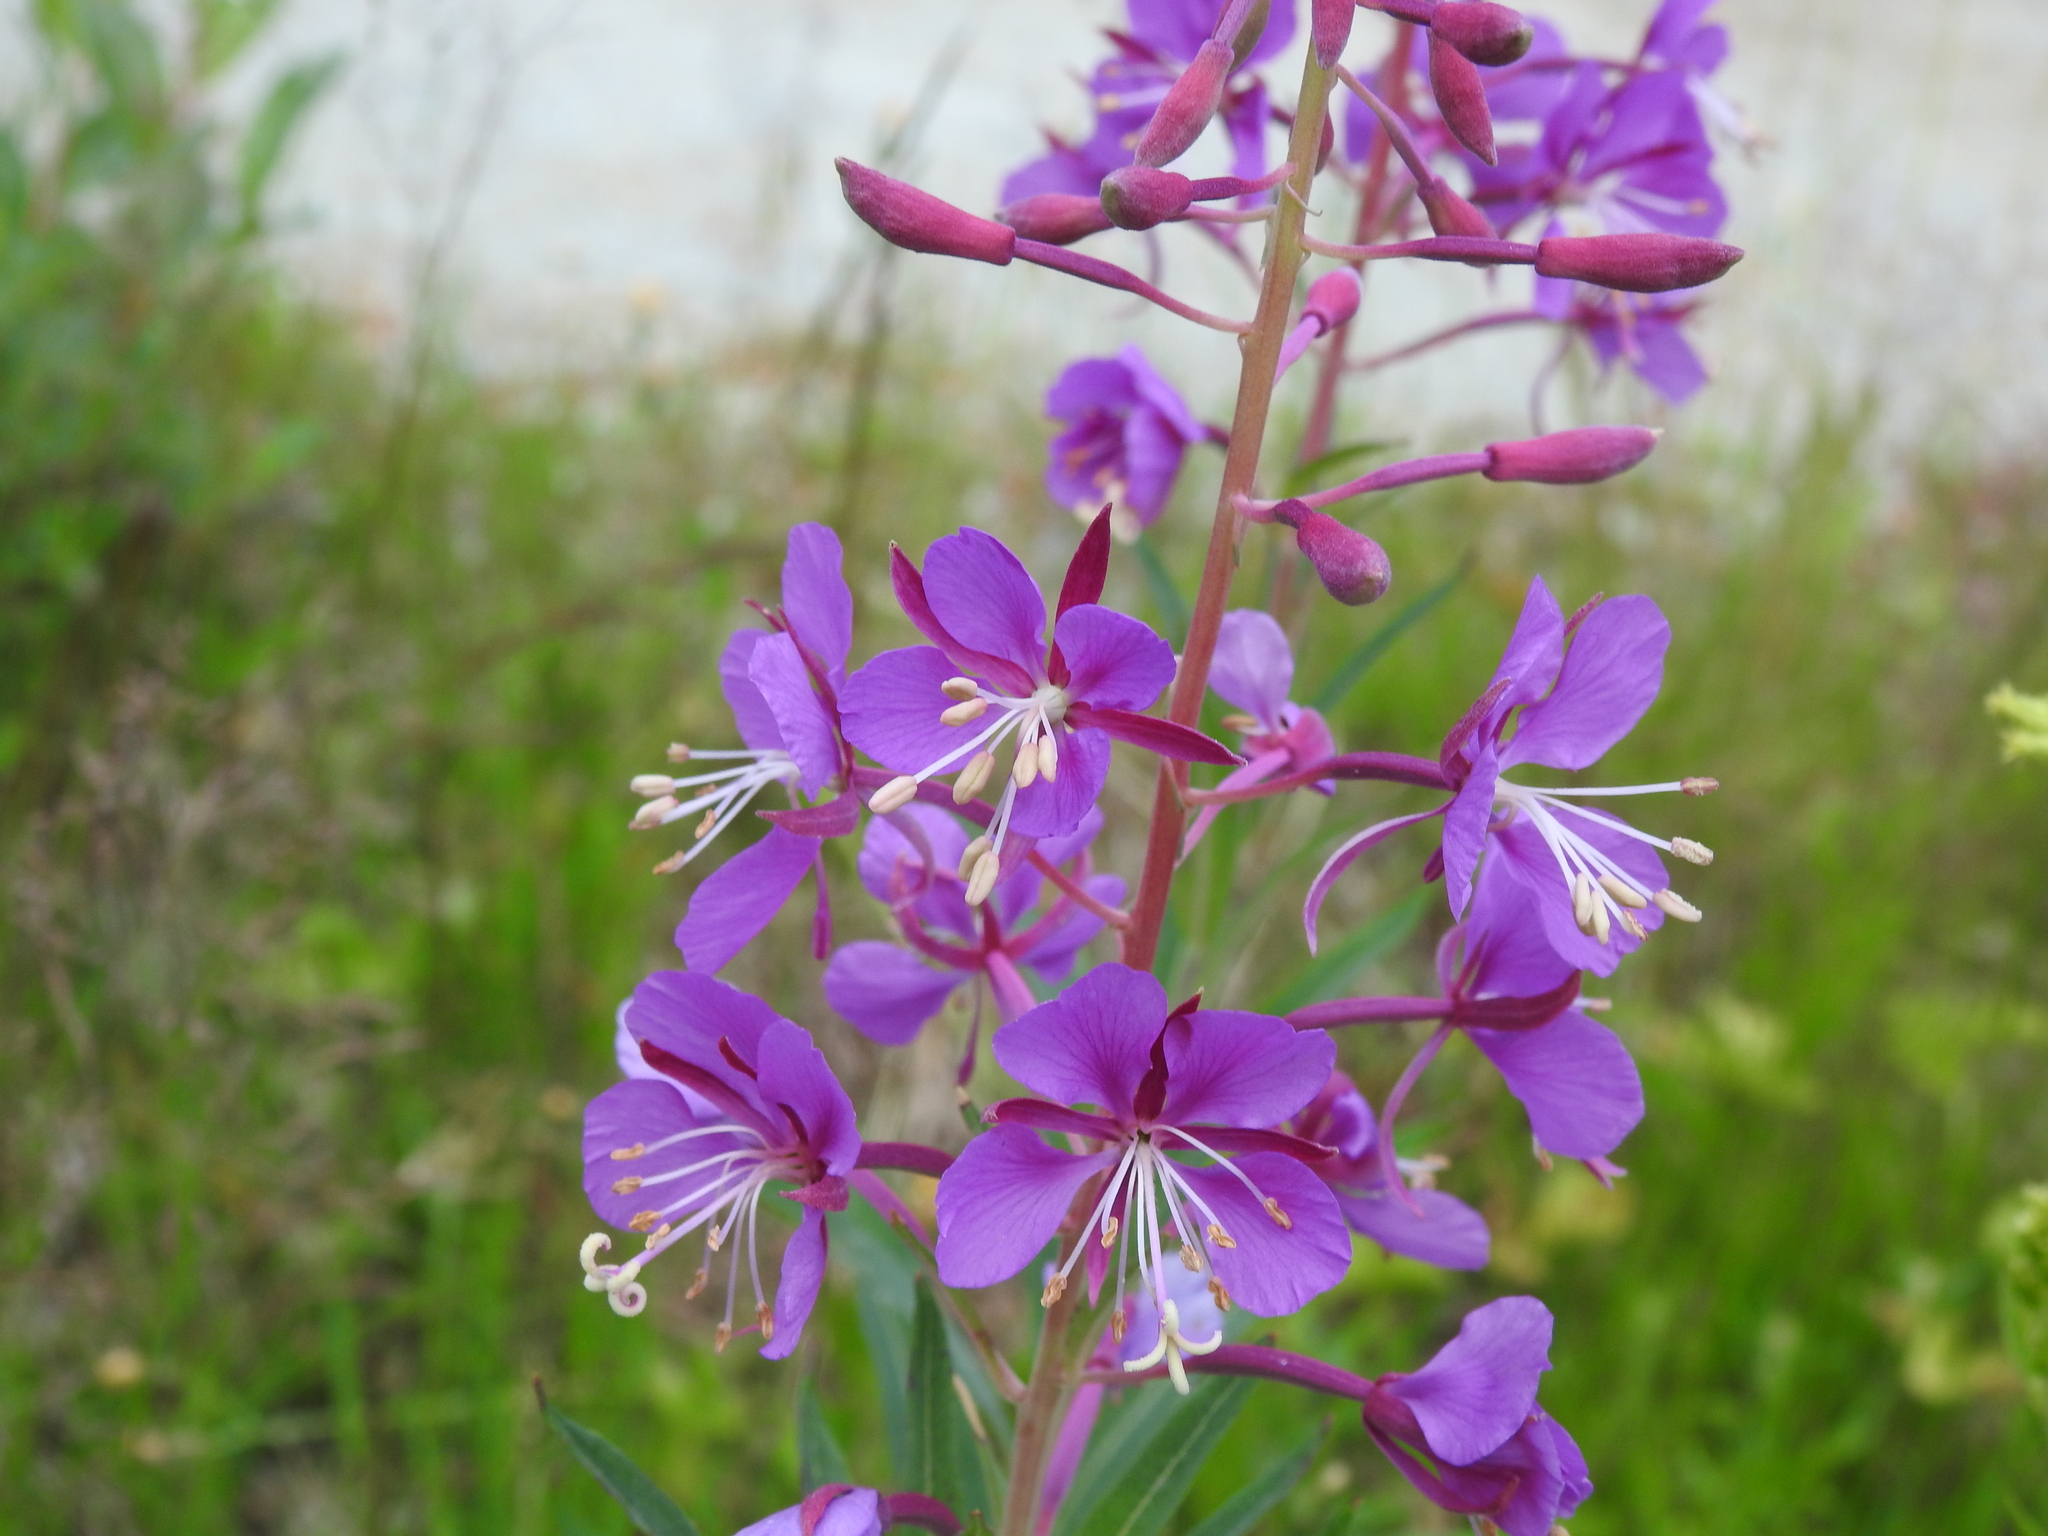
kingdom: Plantae
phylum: Tracheophyta
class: Magnoliopsida
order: Myrtales
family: Onagraceae
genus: Chamaenerion
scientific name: Chamaenerion angustifolium
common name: Fireweed
